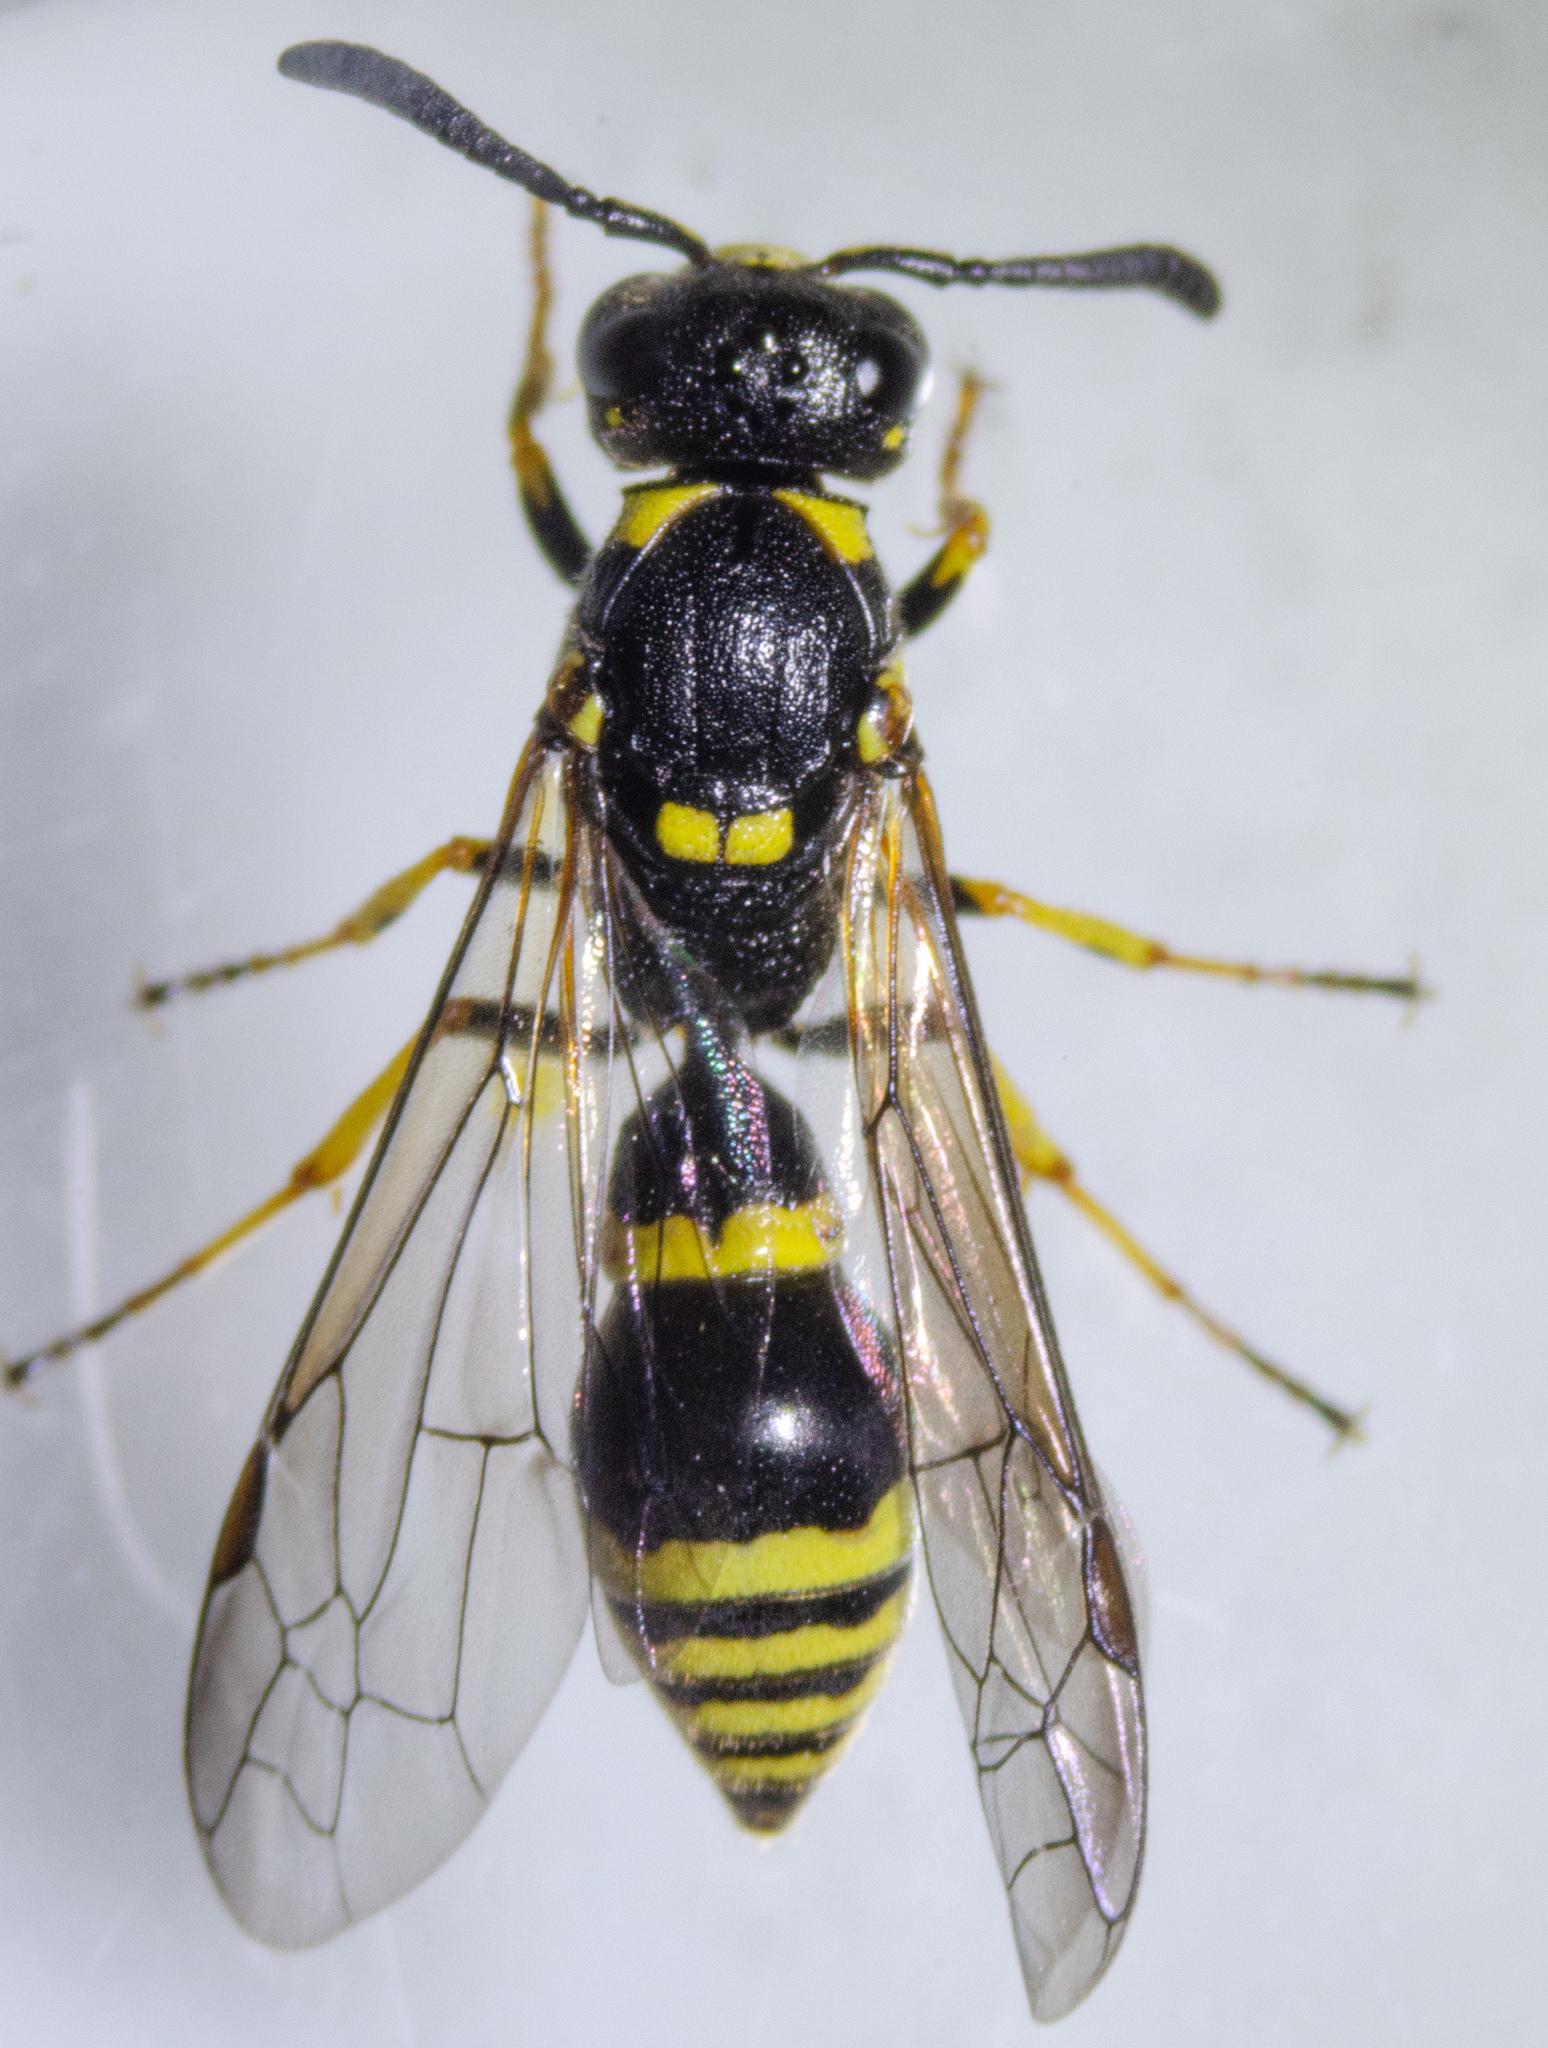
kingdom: Animalia
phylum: Arthropoda
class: Insecta
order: Hymenoptera
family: Eumenidae
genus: Symmorphus
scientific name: Symmorphus projectus
